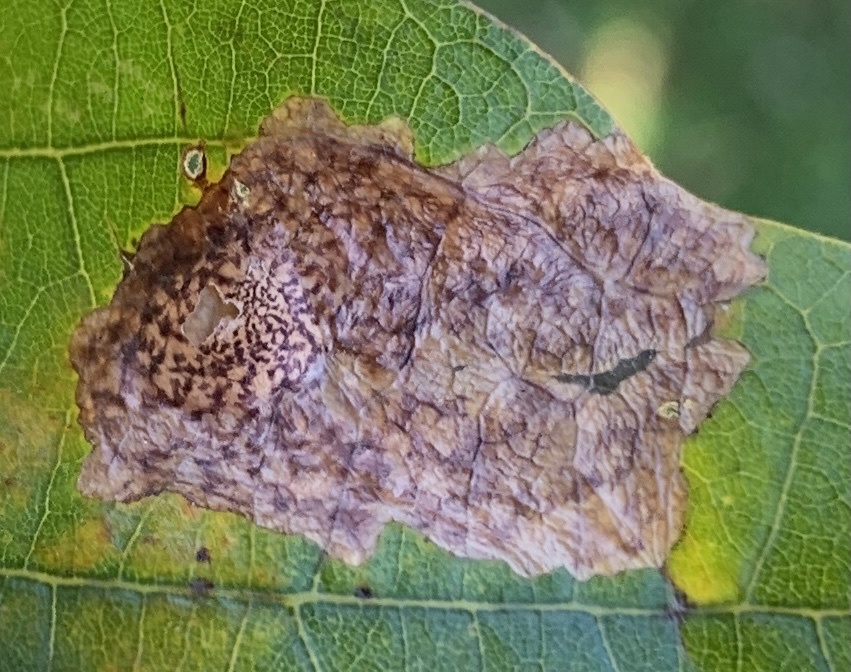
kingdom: Animalia
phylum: Arthropoda
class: Insecta
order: Lepidoptera
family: Tischeriidae
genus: Tischeria
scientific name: Tischeria quercitella
